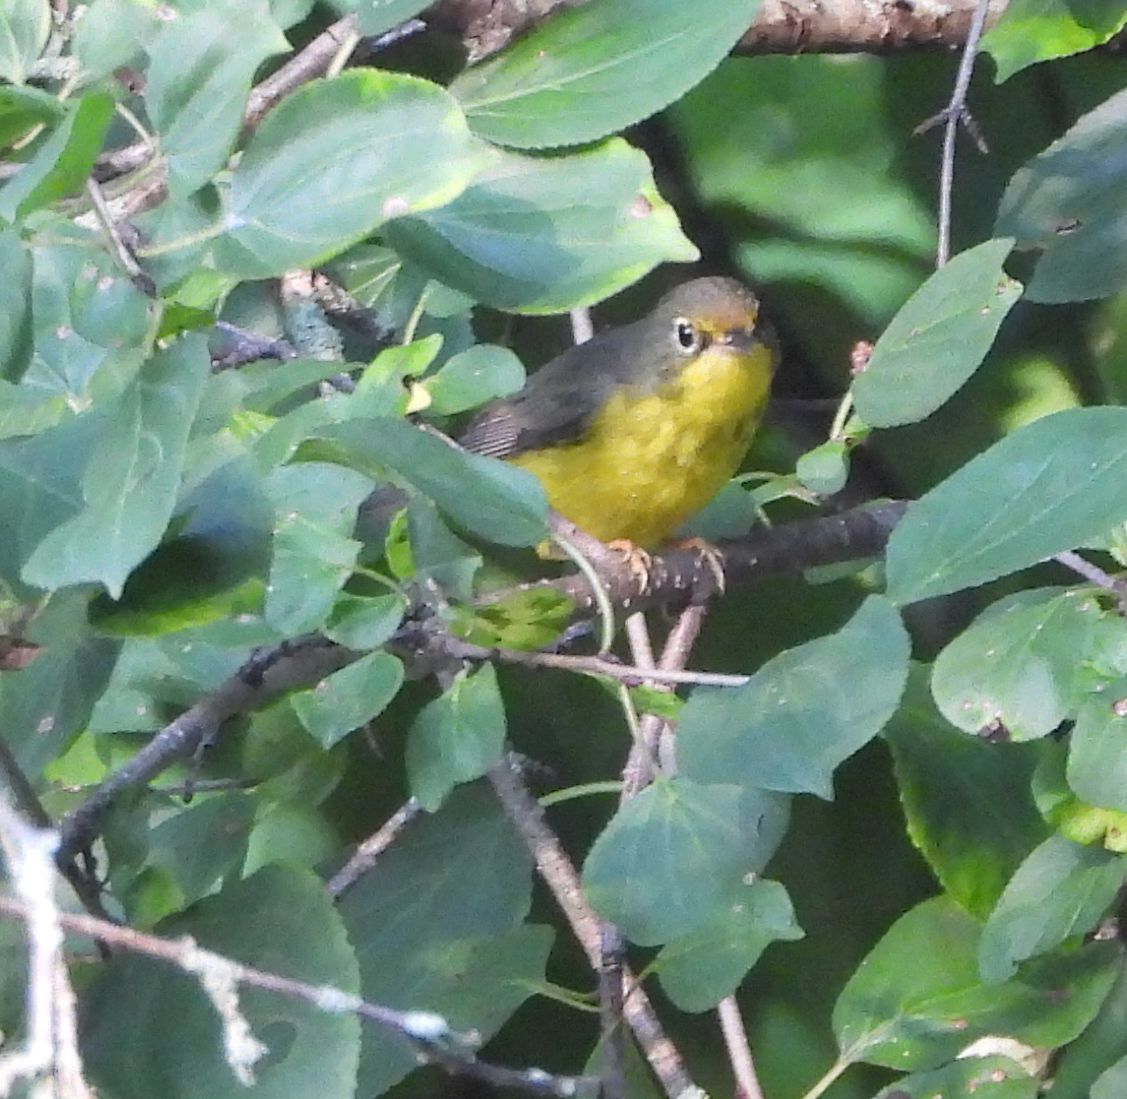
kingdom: Animalia
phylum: Chordata
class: Aves
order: Passeriformes
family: Parulidae
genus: Cardellina
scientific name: Cardellina canadensis
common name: Canada warbler
